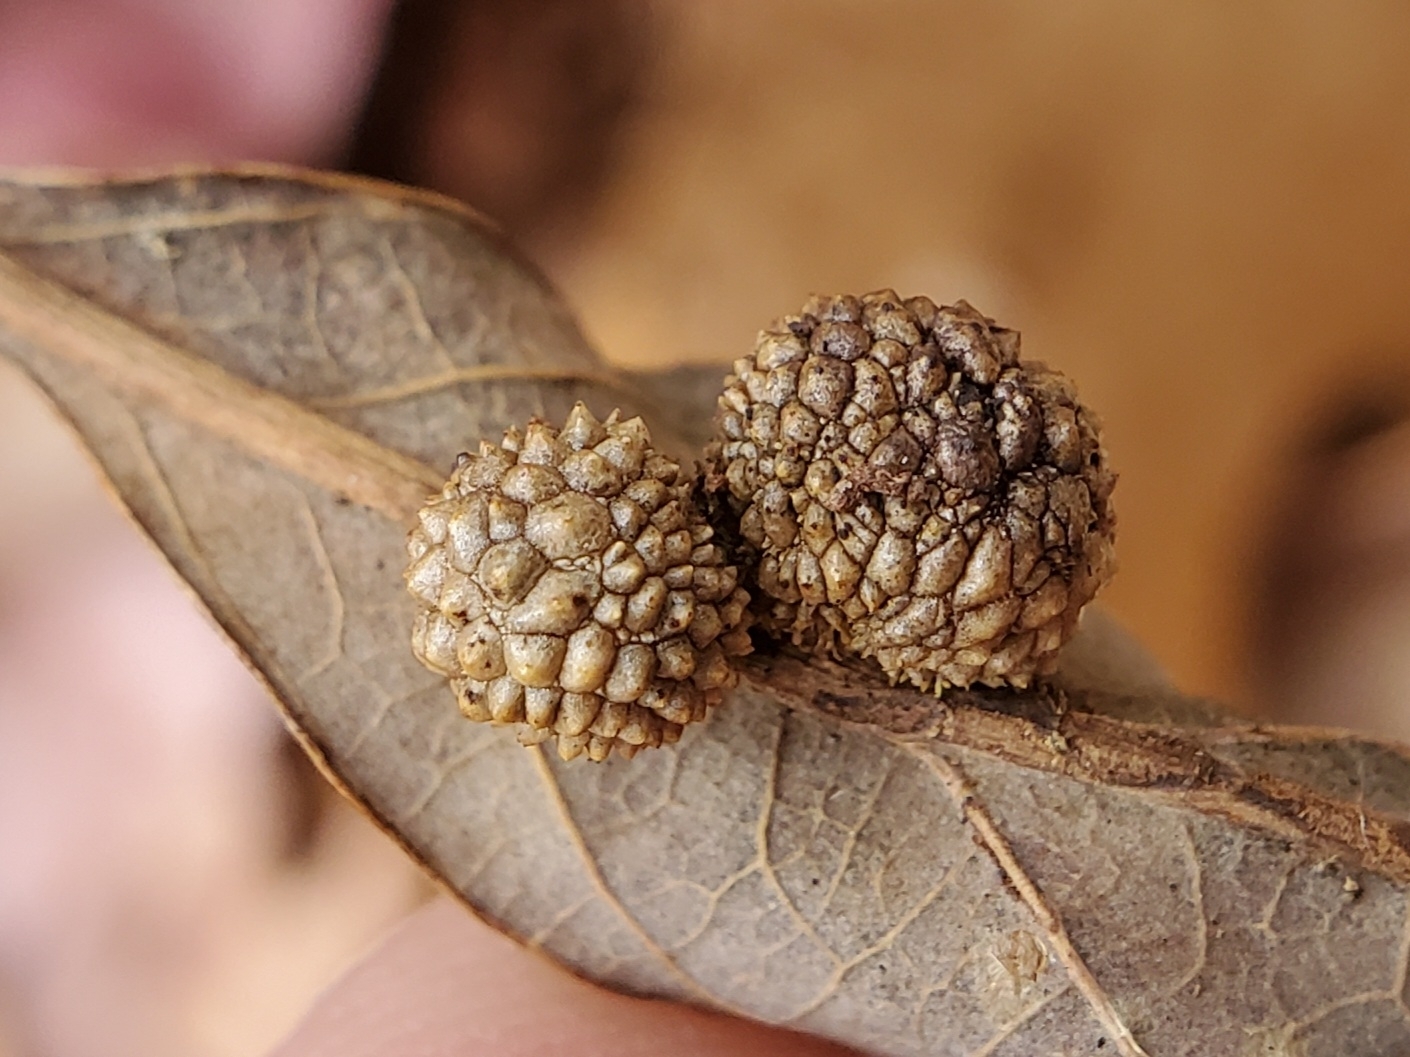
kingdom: Animalia
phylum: Arthropoda
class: Insecta
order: Hymenoptera
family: Cynipidae
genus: Acraspis
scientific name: Acraspis
